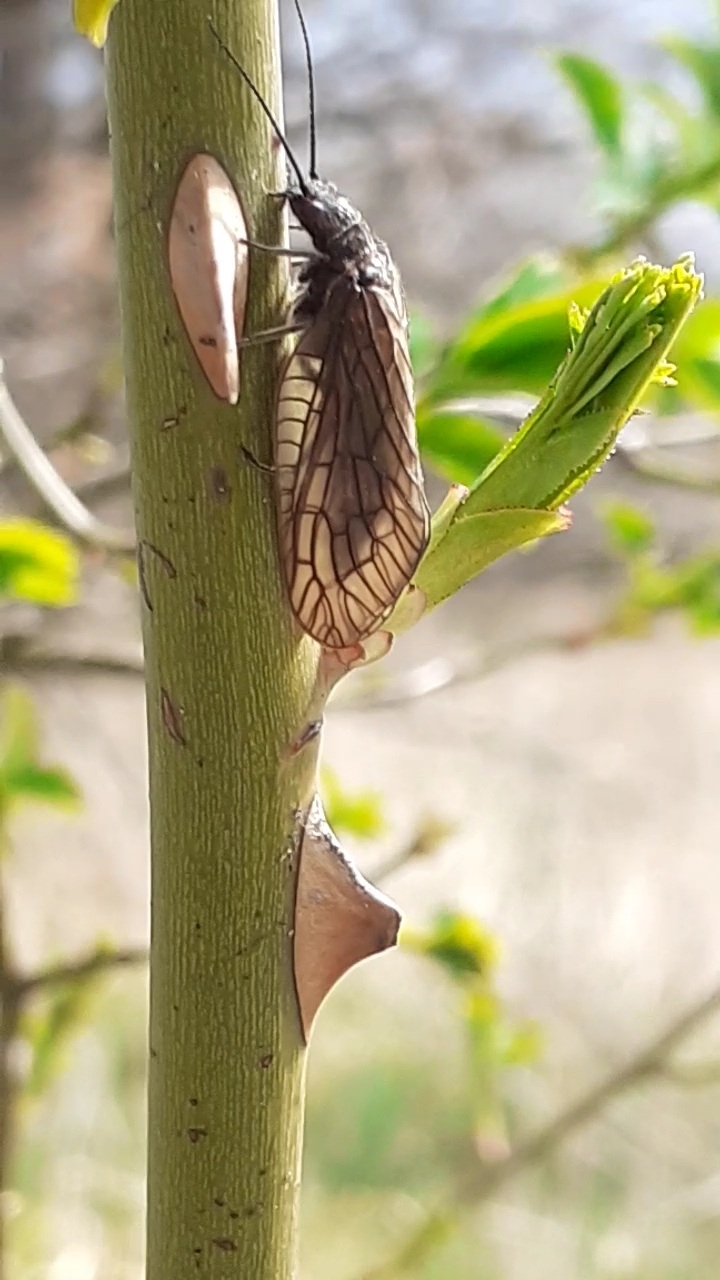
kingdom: Animalia
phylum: Arthropoda
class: Insecta
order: Megaloptera
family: Sialidae
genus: Sialis
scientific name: Sialis
